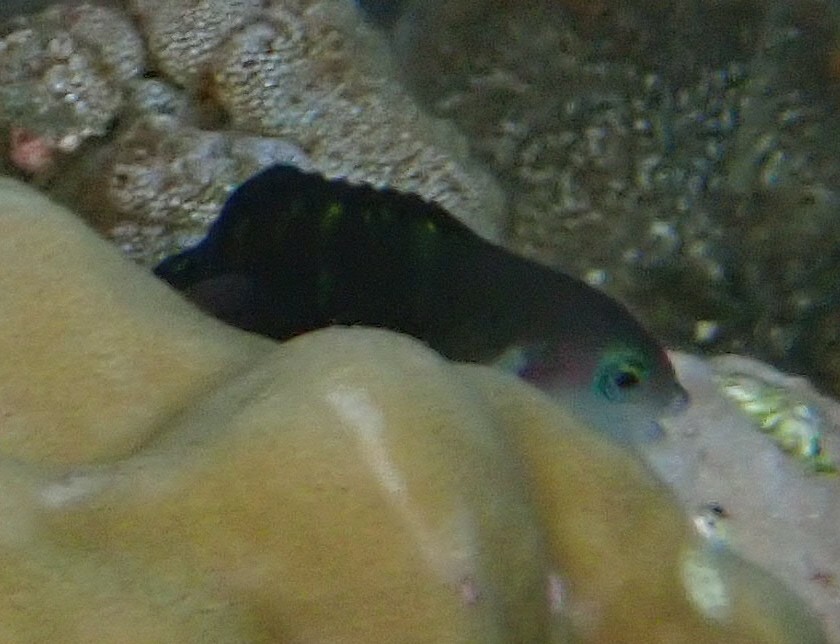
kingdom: Animalia
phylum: Chordata
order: Perciformes
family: Labridae
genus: Thalassoma
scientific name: Thalassoma jansenii
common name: Jansen's wrasse
